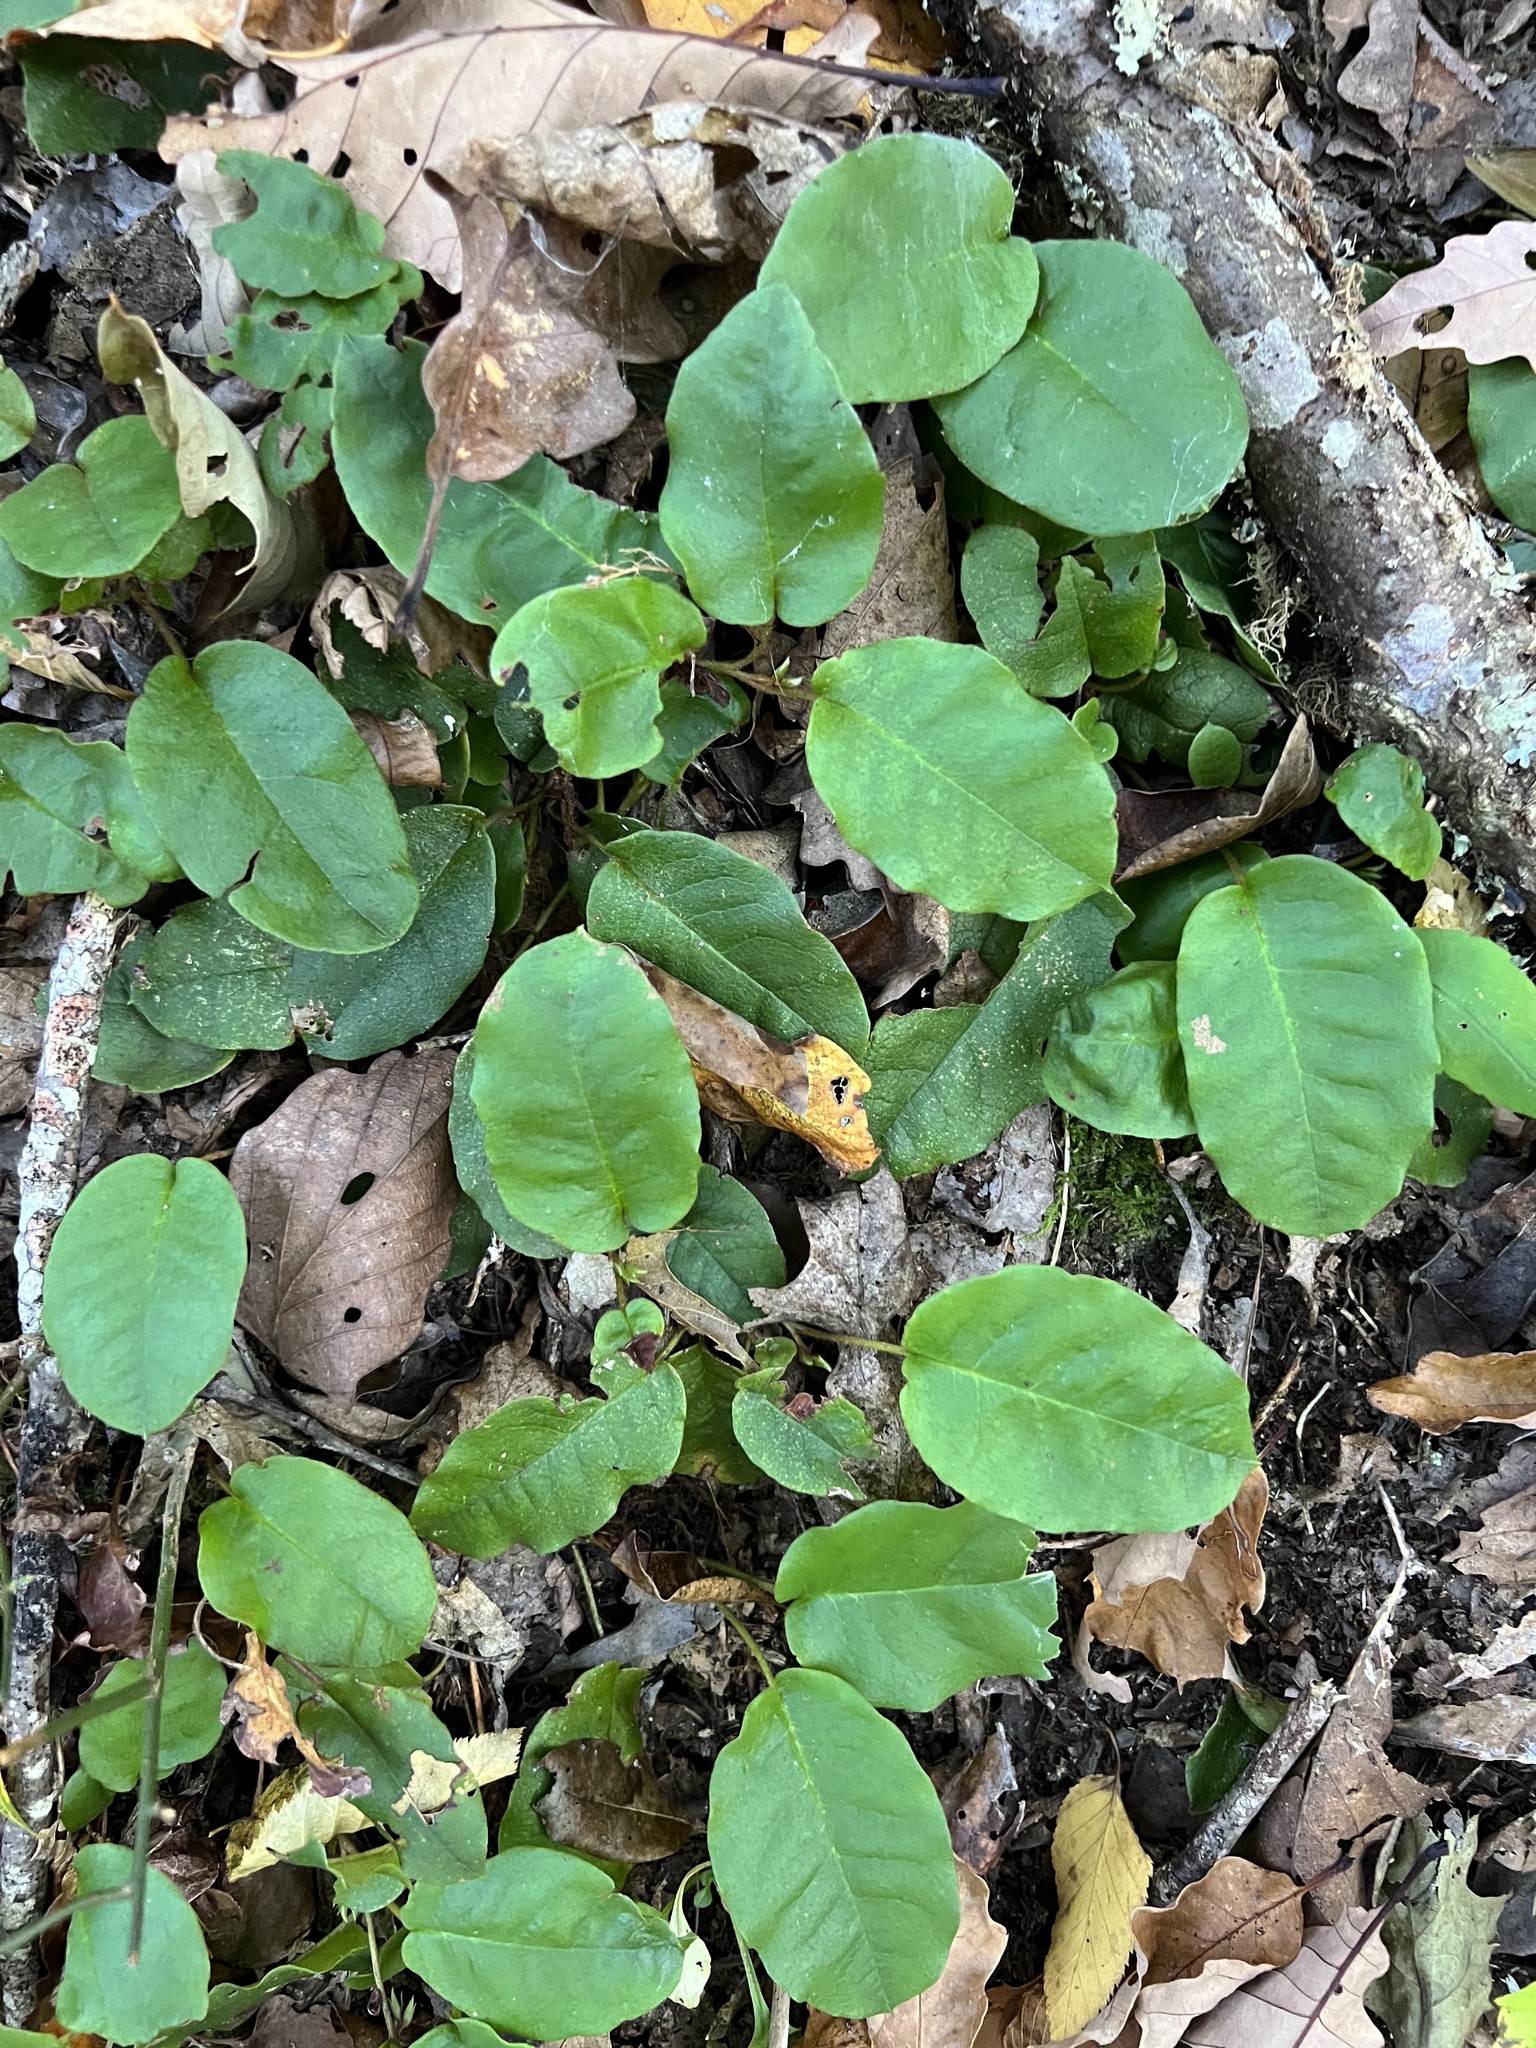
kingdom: Plantae
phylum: Tracheophyta
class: Magnoliopsida
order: Ericales
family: Ericaceae
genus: Epigaea
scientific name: Epigaea repens
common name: Gravelroot
